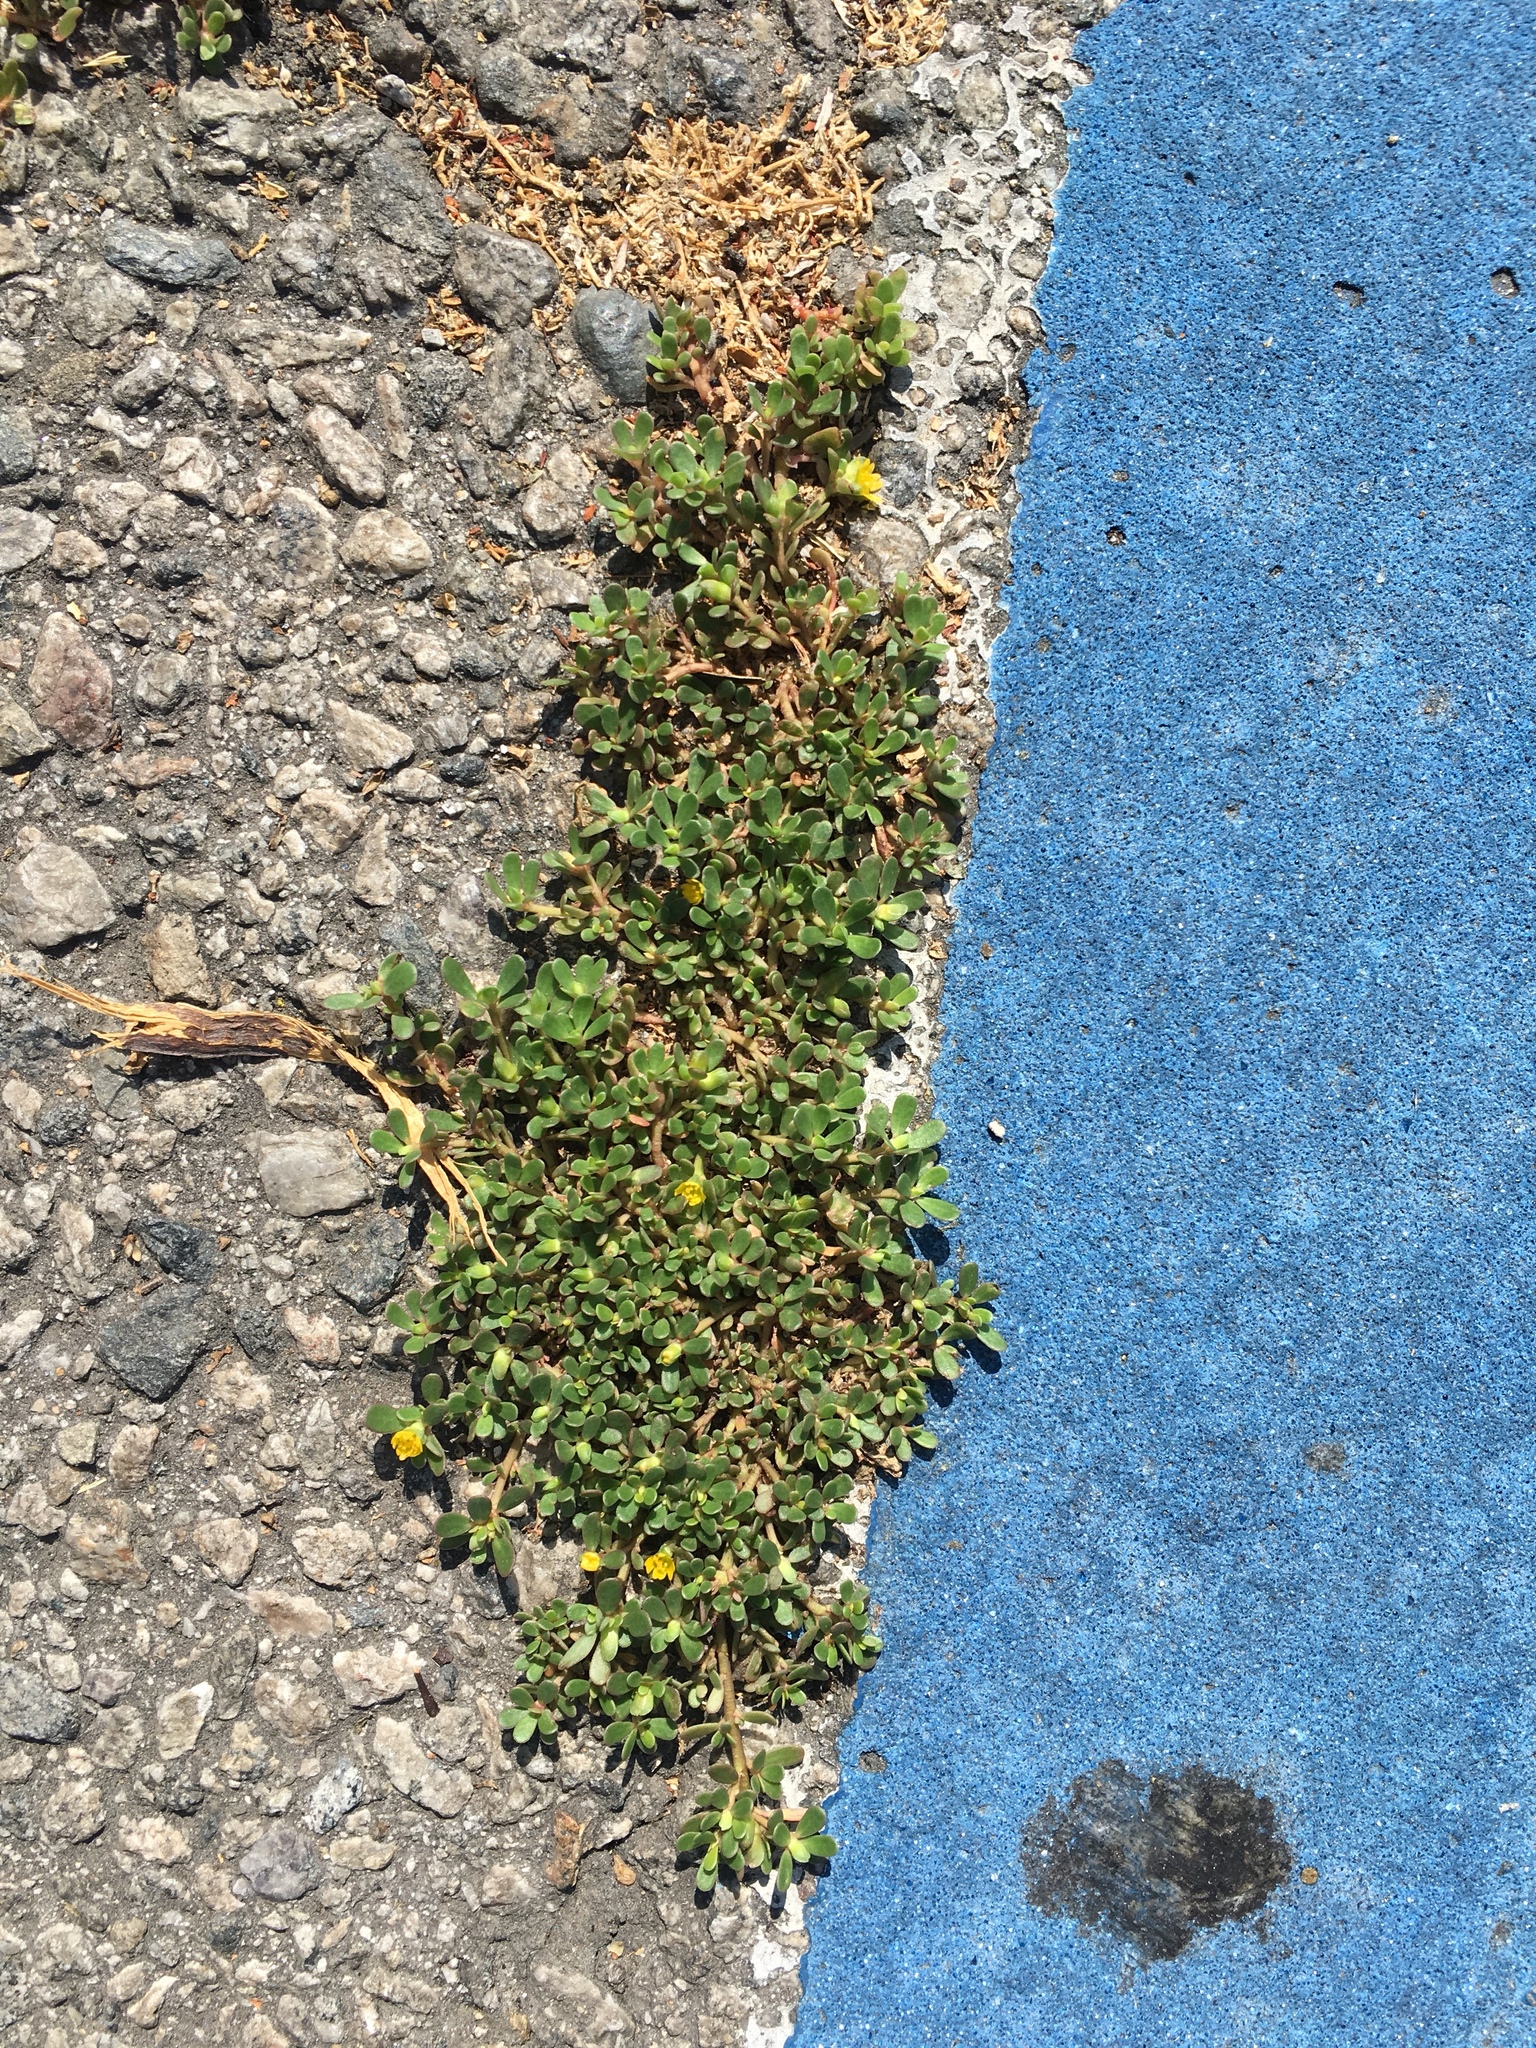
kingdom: Plantae
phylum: Tracheophyta
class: Magnoliopsida
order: Caryophyllales
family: Portulacaceae
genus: Portulaca
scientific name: Portulaca oleracea
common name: Common purslane
